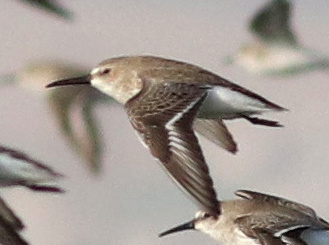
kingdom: Animalia
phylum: Chordata
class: Aves
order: Charadriiformes
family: Scolopacidae
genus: Calidris
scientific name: Calidris alpina
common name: Dunlin
